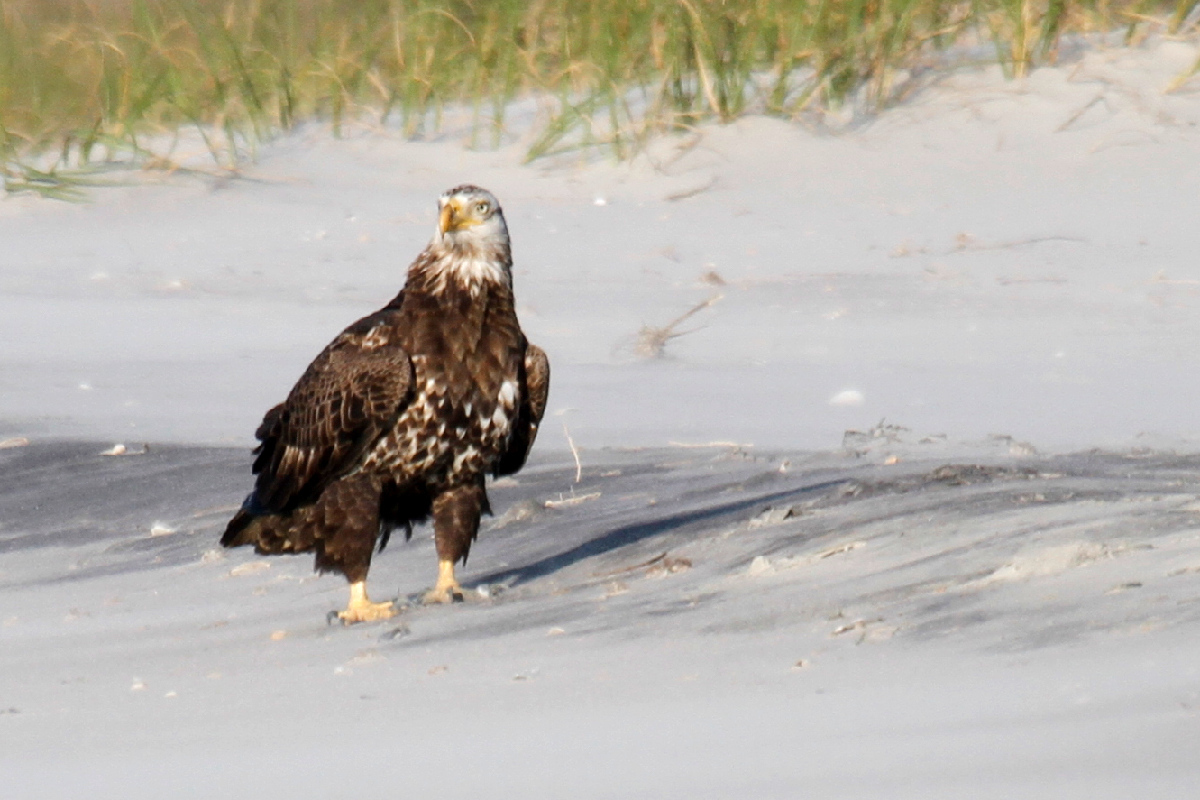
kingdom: Animalia
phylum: Chordata
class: Aves
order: Accipitriformes
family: Accipitridae
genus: Haliaeetus
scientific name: Haliaeetus leucocephalus
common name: Bald eagle
